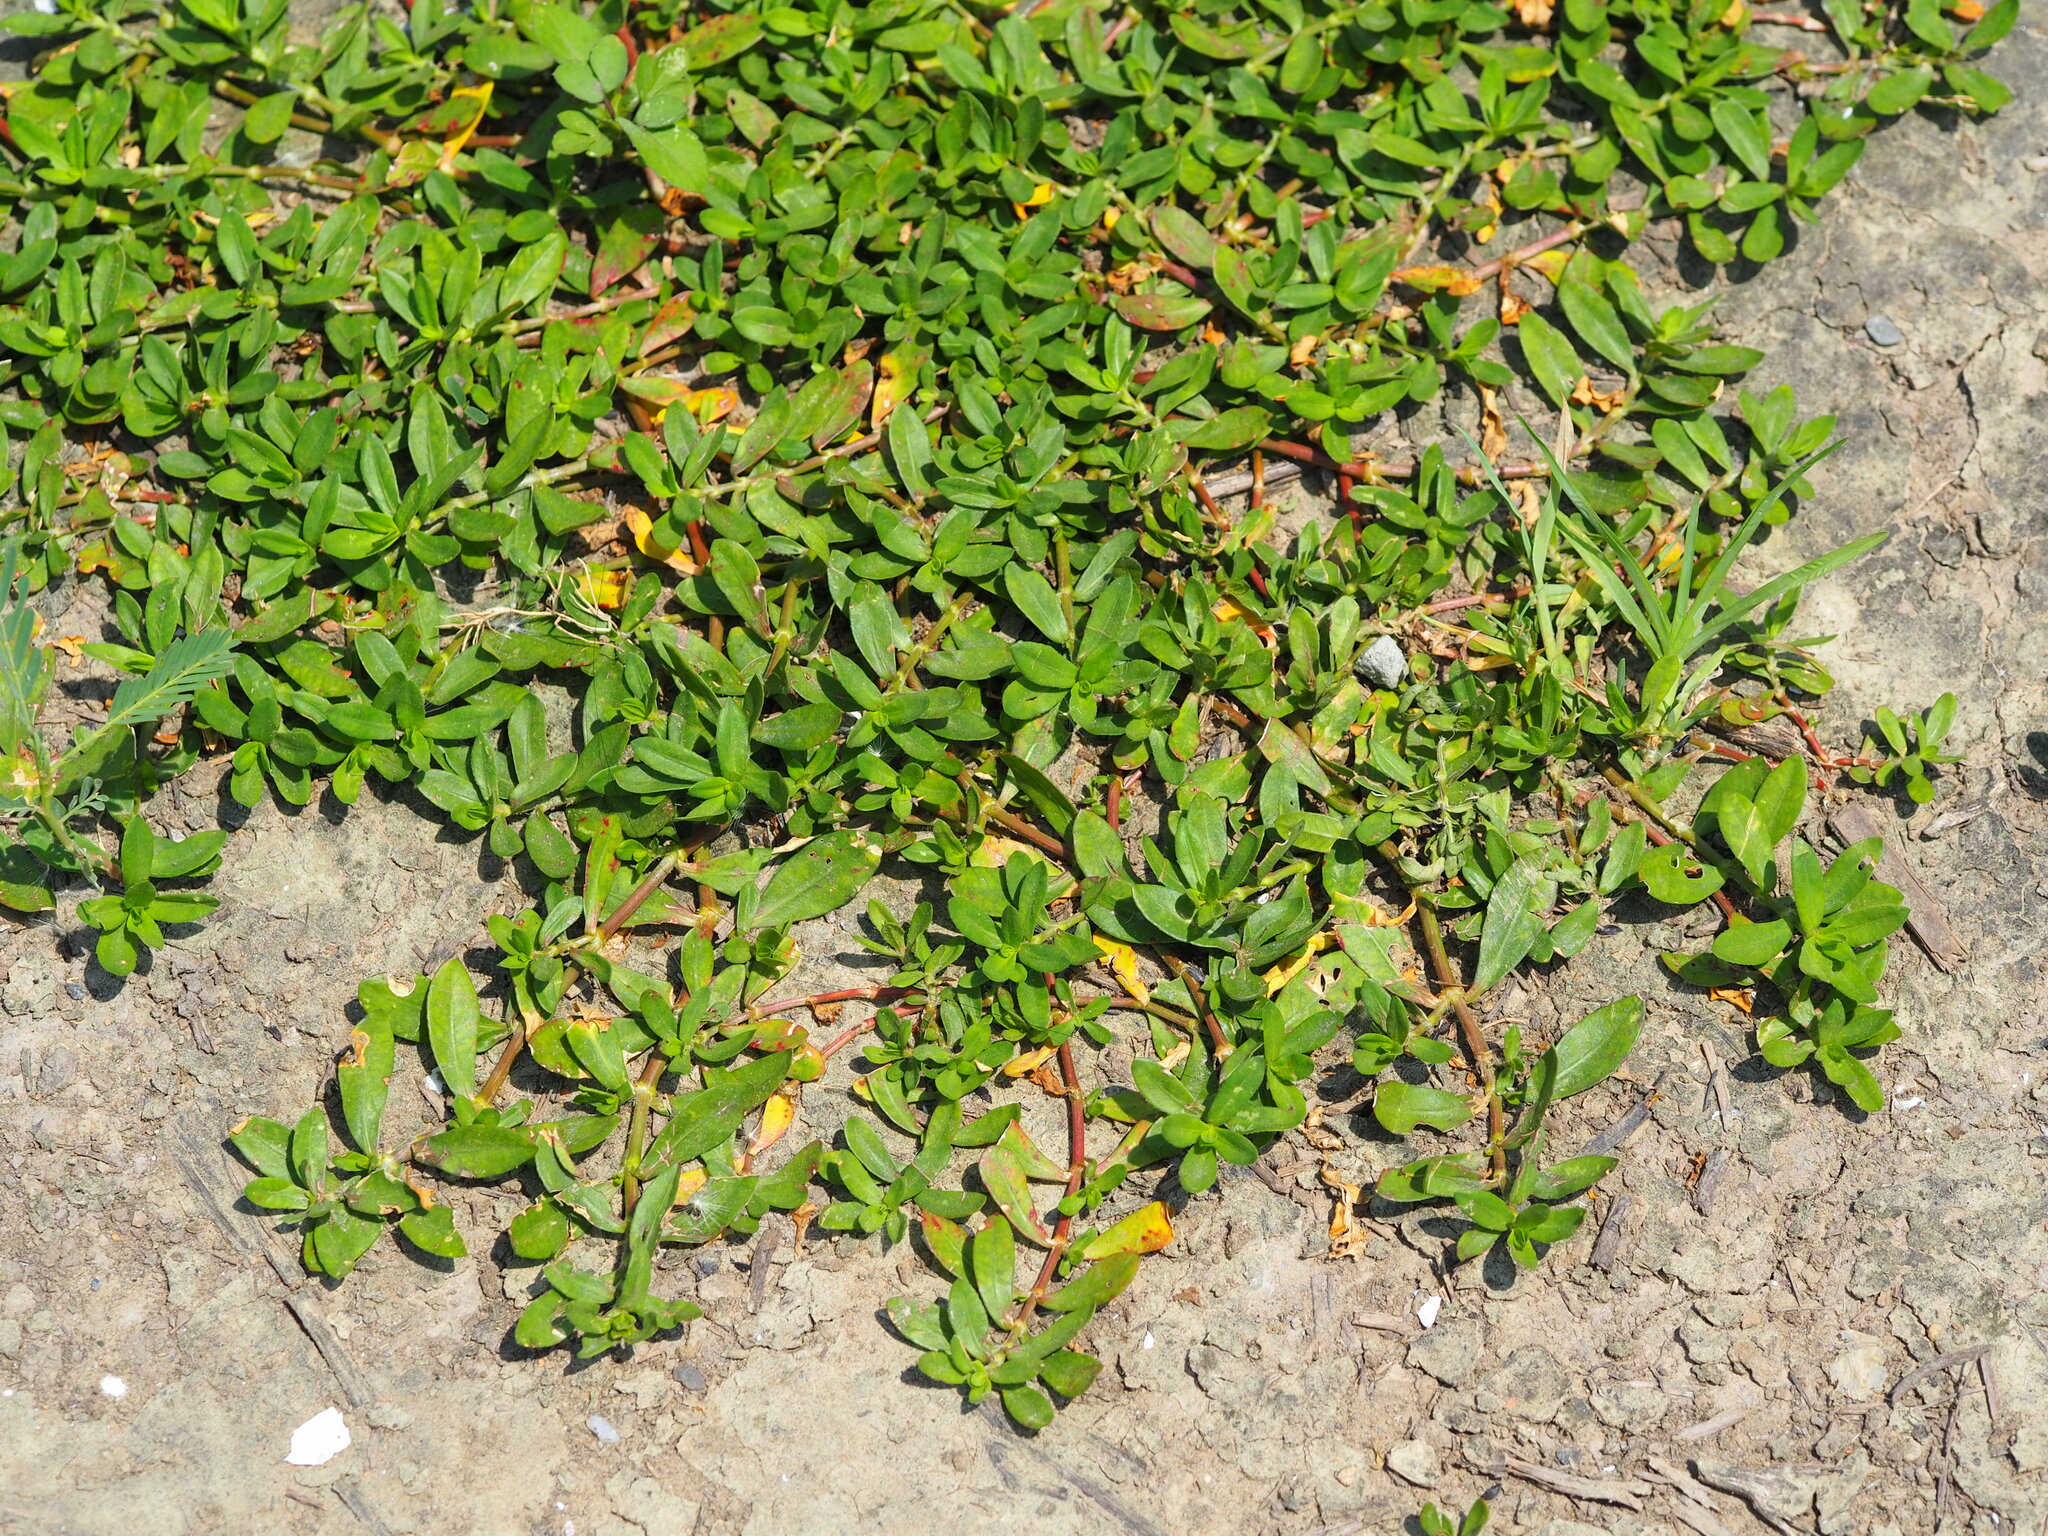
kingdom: Plantae
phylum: Tracheophyta
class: Magnoliopsida
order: Lamiales
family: Verbenaceae
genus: Phyla
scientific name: Phyla nodiflora
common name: Frogfruit
